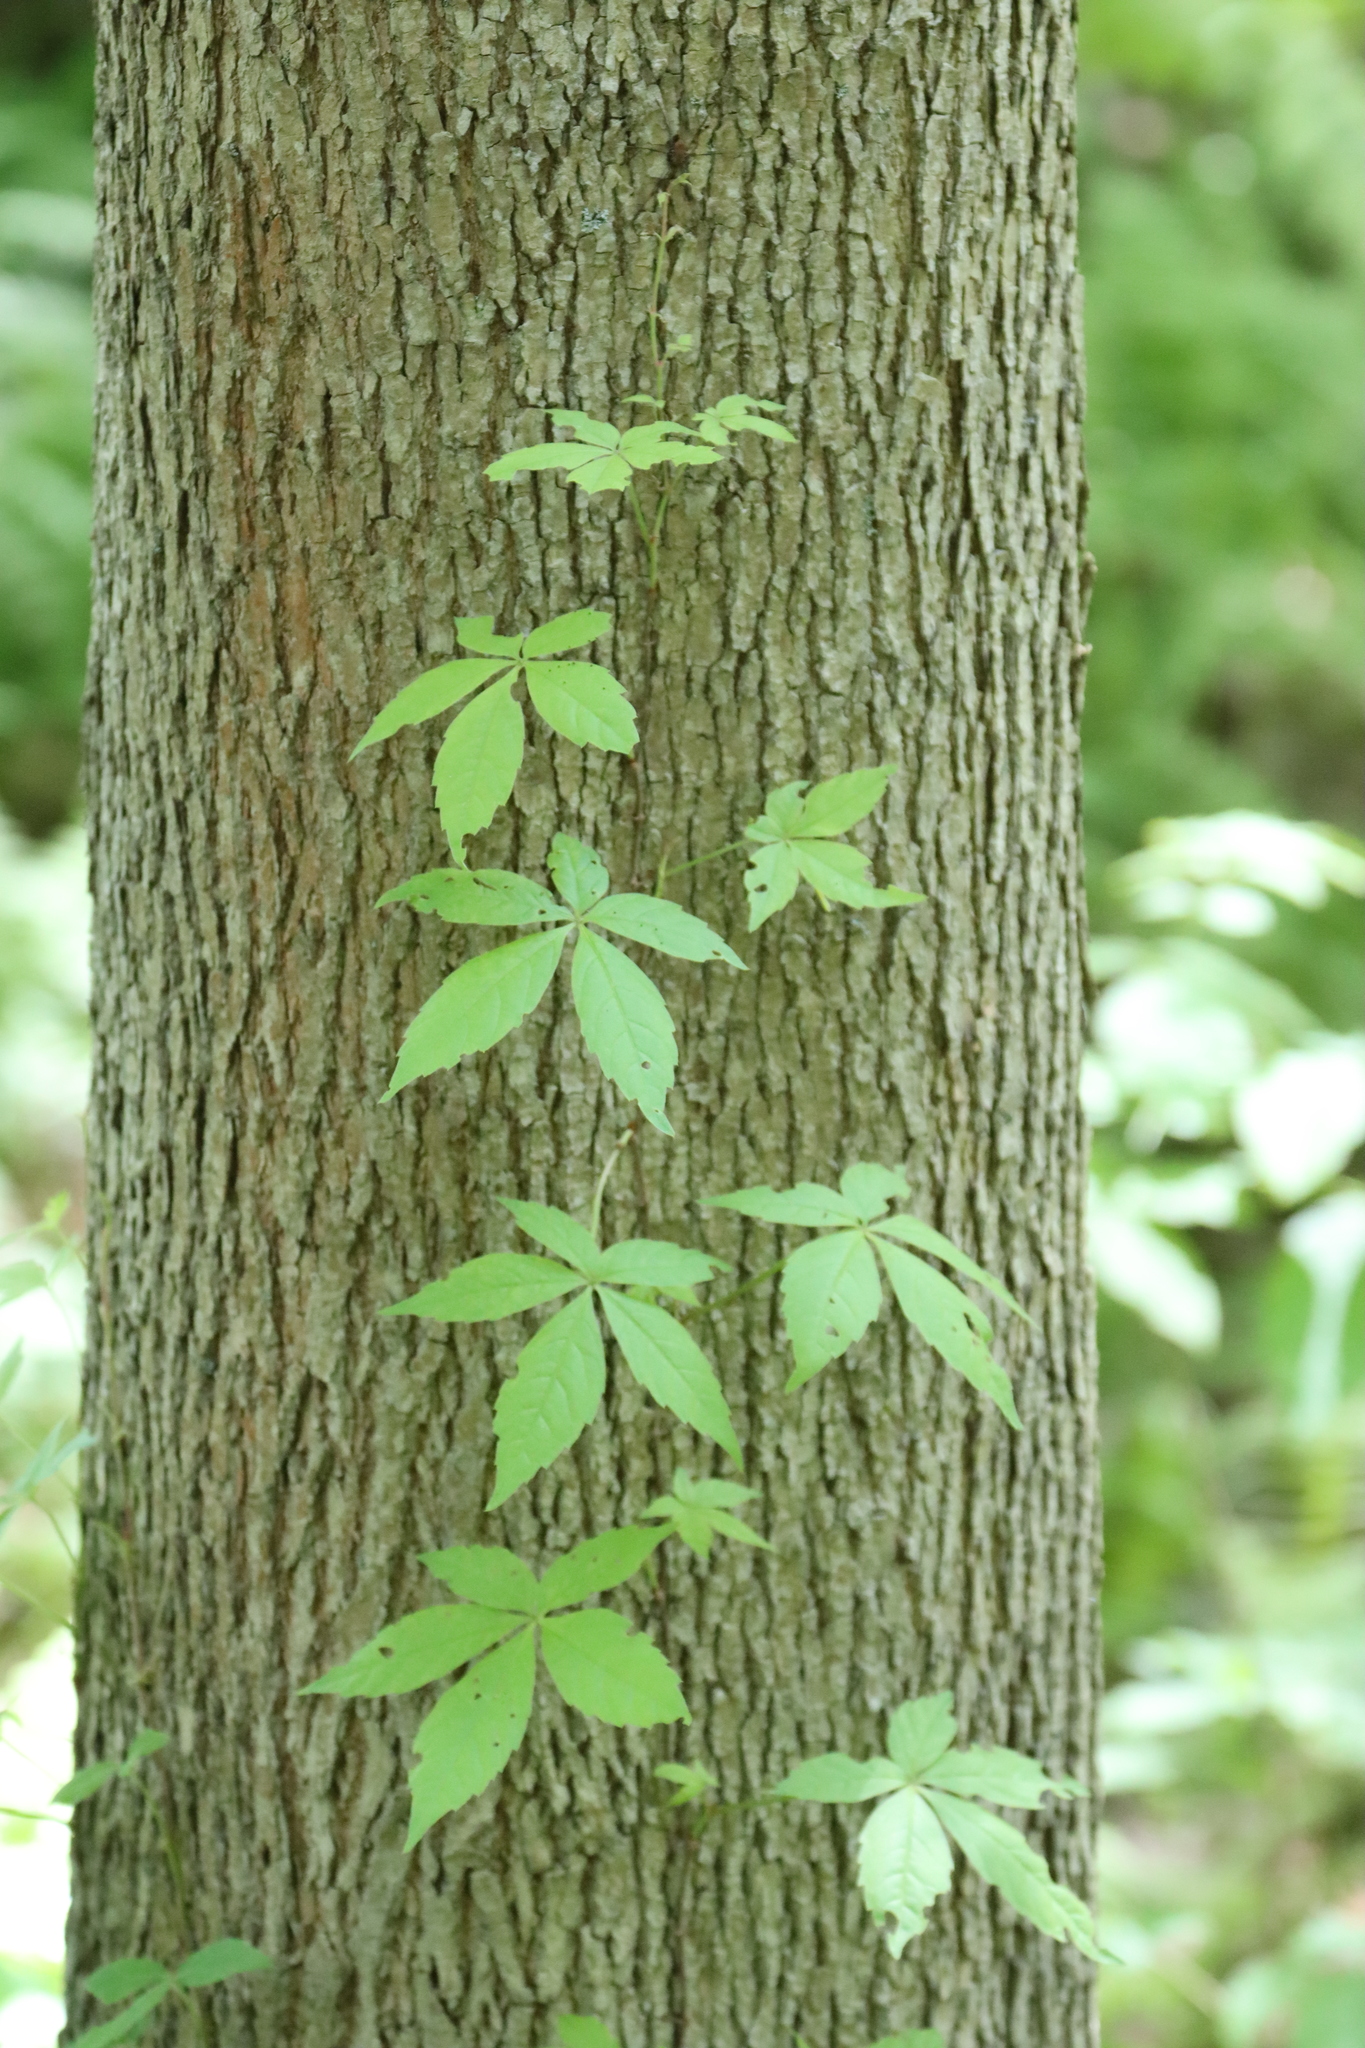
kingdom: Plantae
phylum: Tracheophyta
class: Magnoliopsida
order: Vitales
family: Vitaceae
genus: Parthenocissus
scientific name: Parthenocissus quinquefolia
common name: Virginia-creeper
